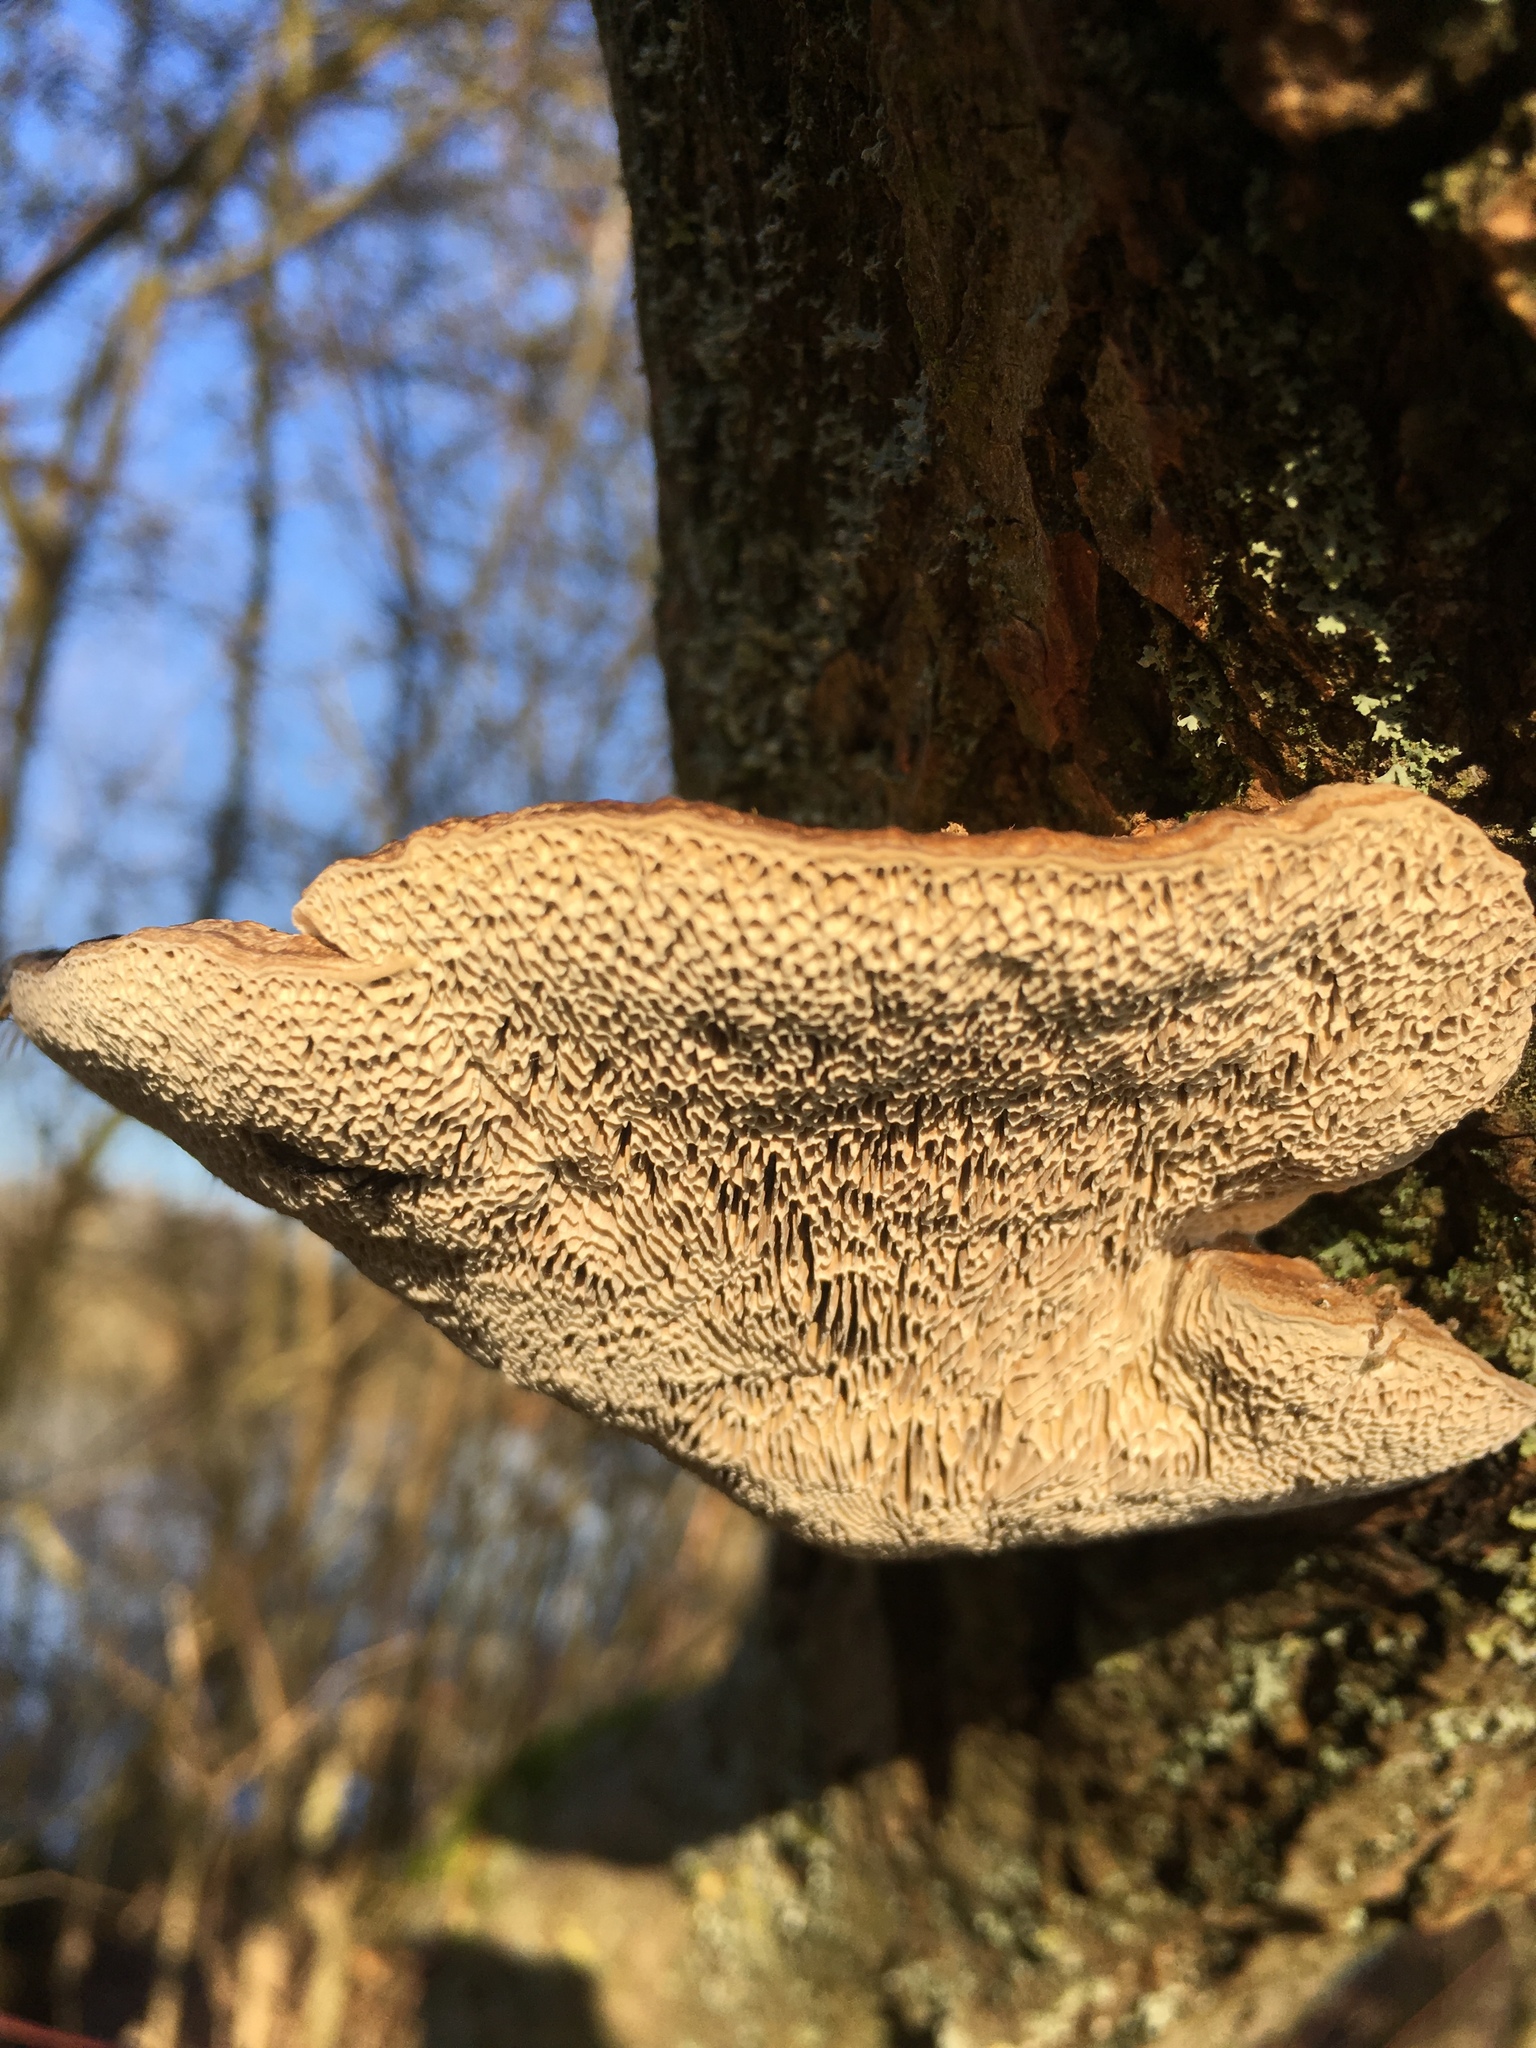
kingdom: Fungi
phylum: Basidiomycota
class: Agaricomycetes
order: Polyporales
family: Fomitopsidaceae
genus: Fomitopsis
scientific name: Fomitopsis
